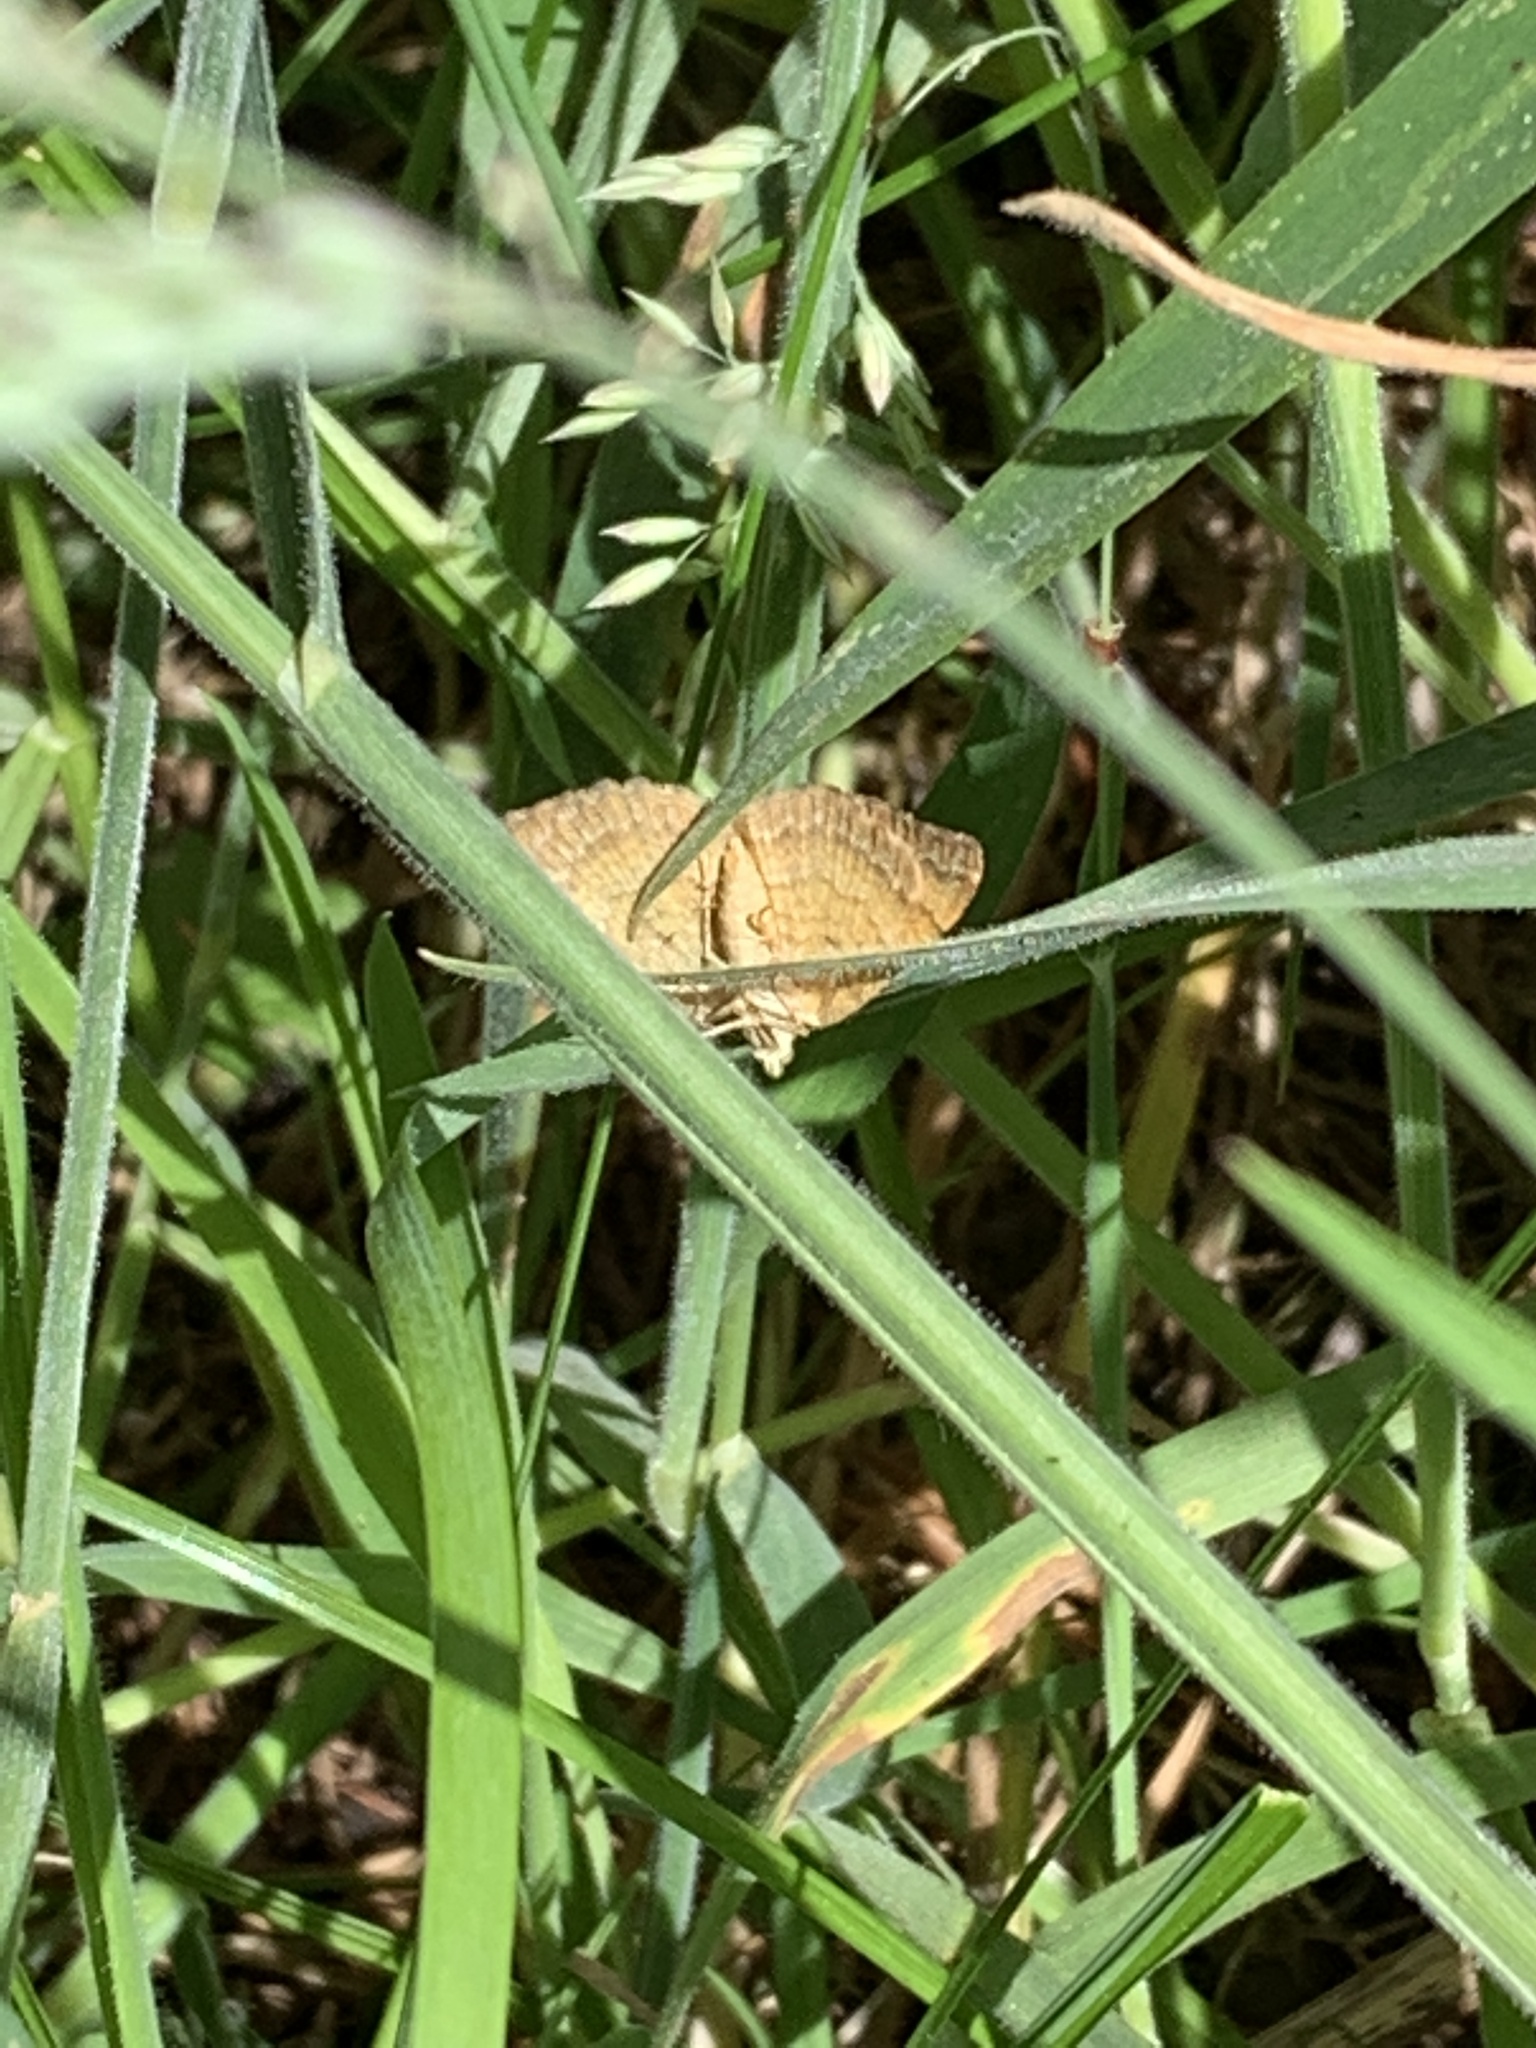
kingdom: Animalia
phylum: Arthropoda
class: Insecta
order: Lepidoptera
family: Geometridae
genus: Camptogramma
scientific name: Camptogramma bilineata
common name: Yellow shell
